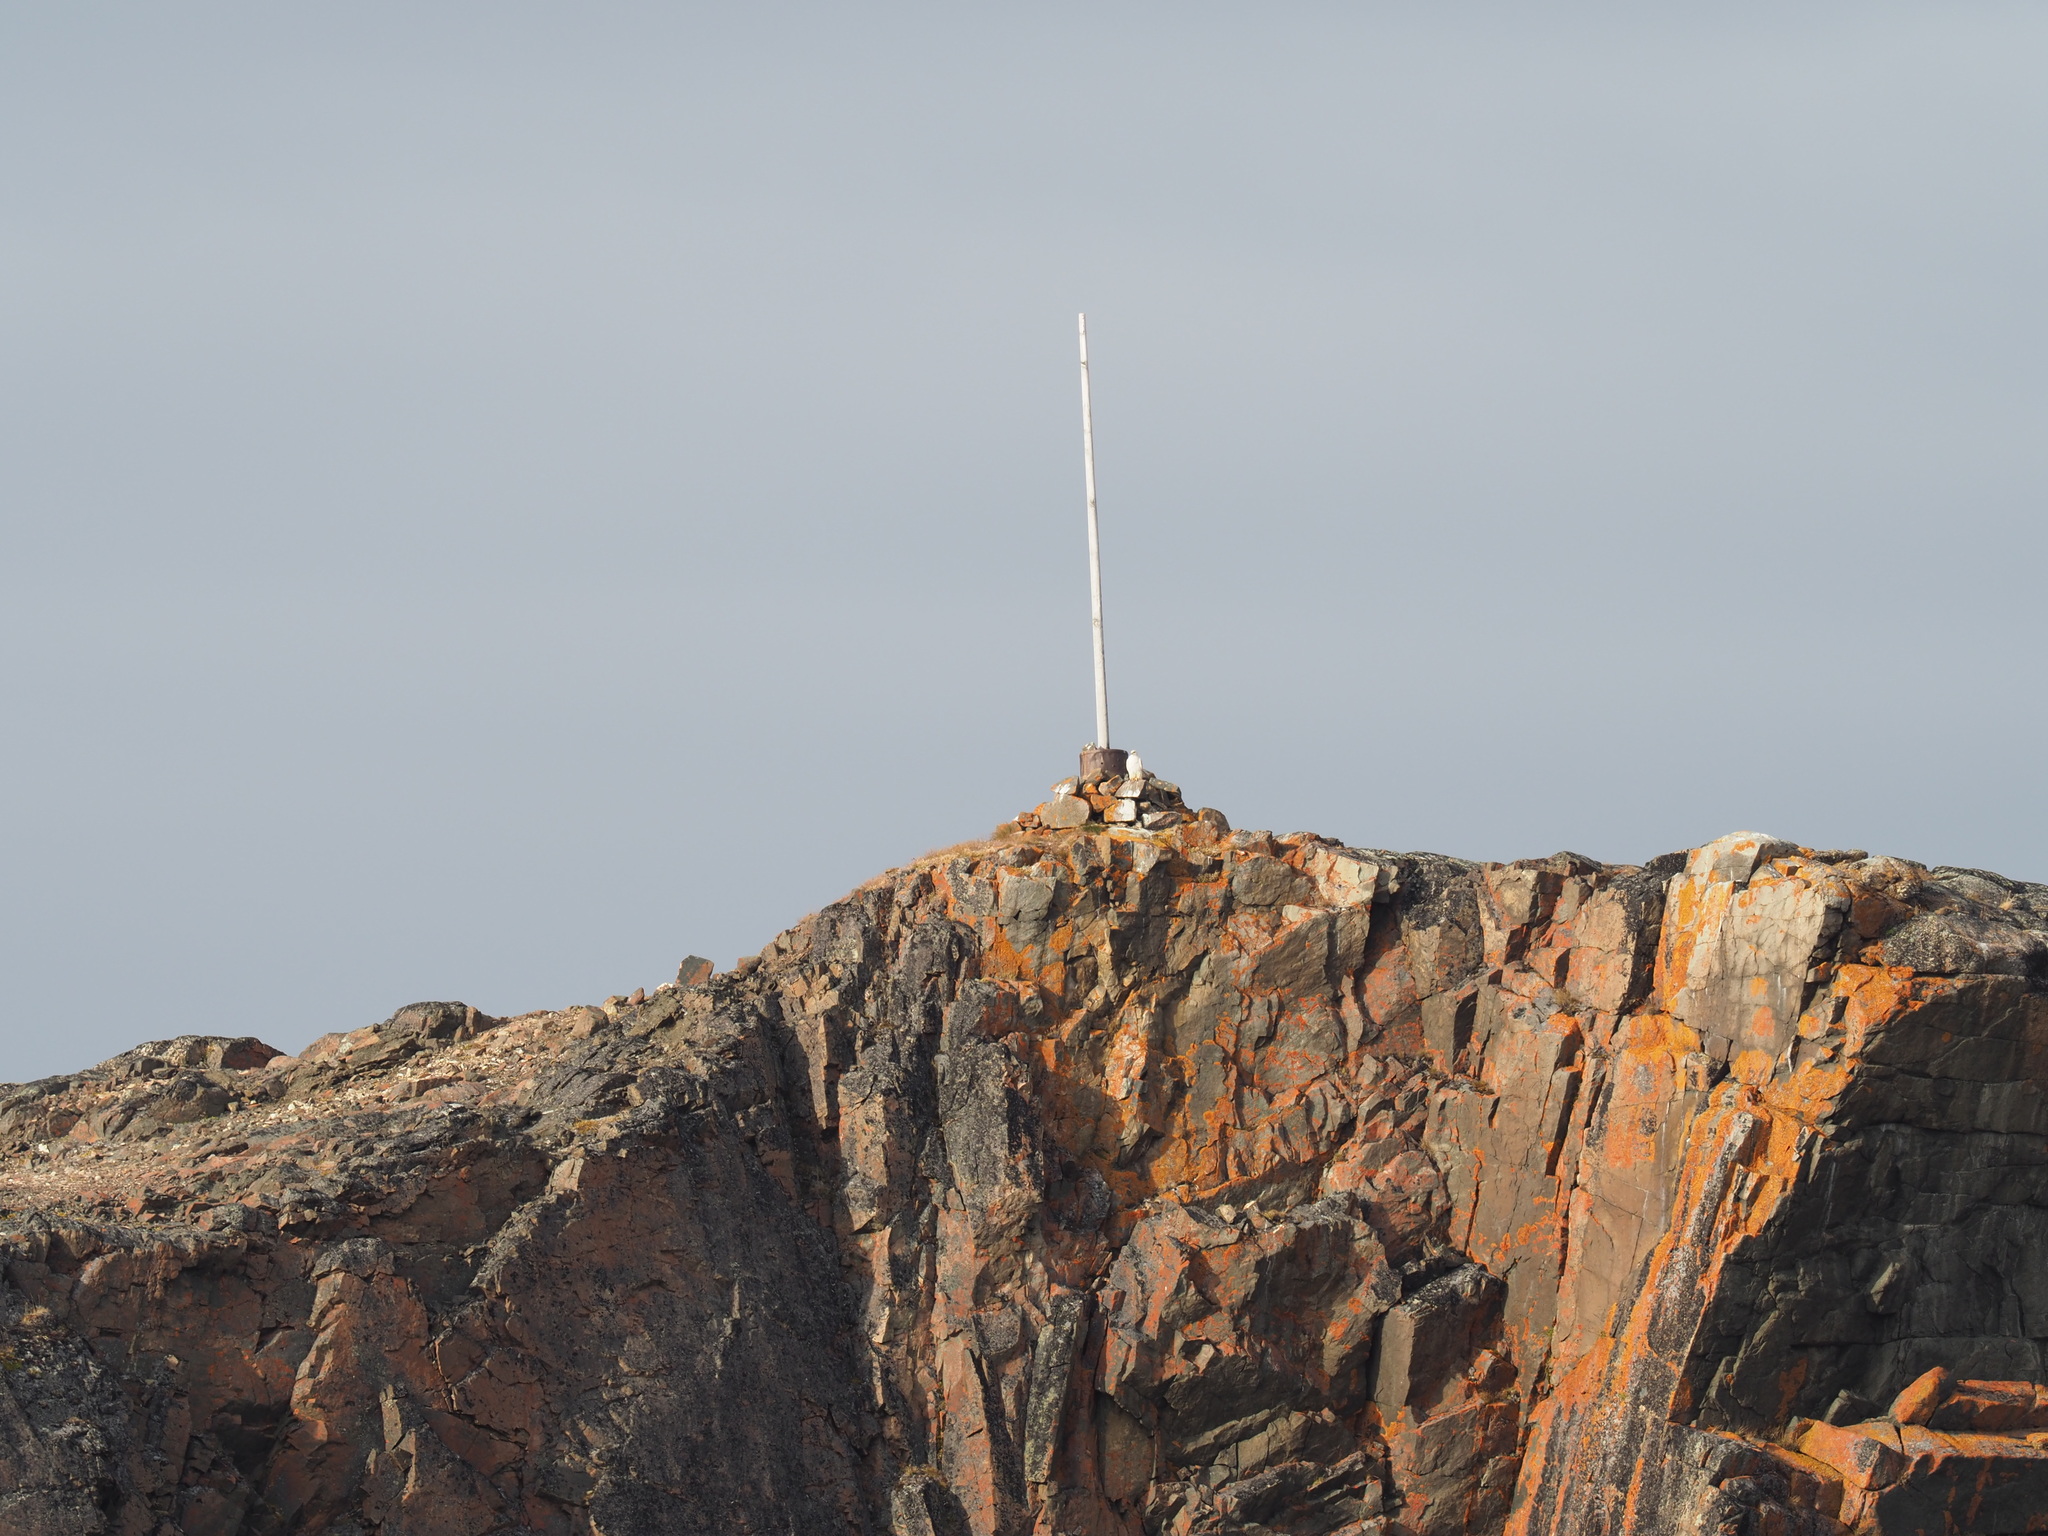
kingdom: Animalia
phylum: Chordata
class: Aves
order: Falconiformes
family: Falconidae
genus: Falco
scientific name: Falco rusticolus
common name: Gyrfalcon
